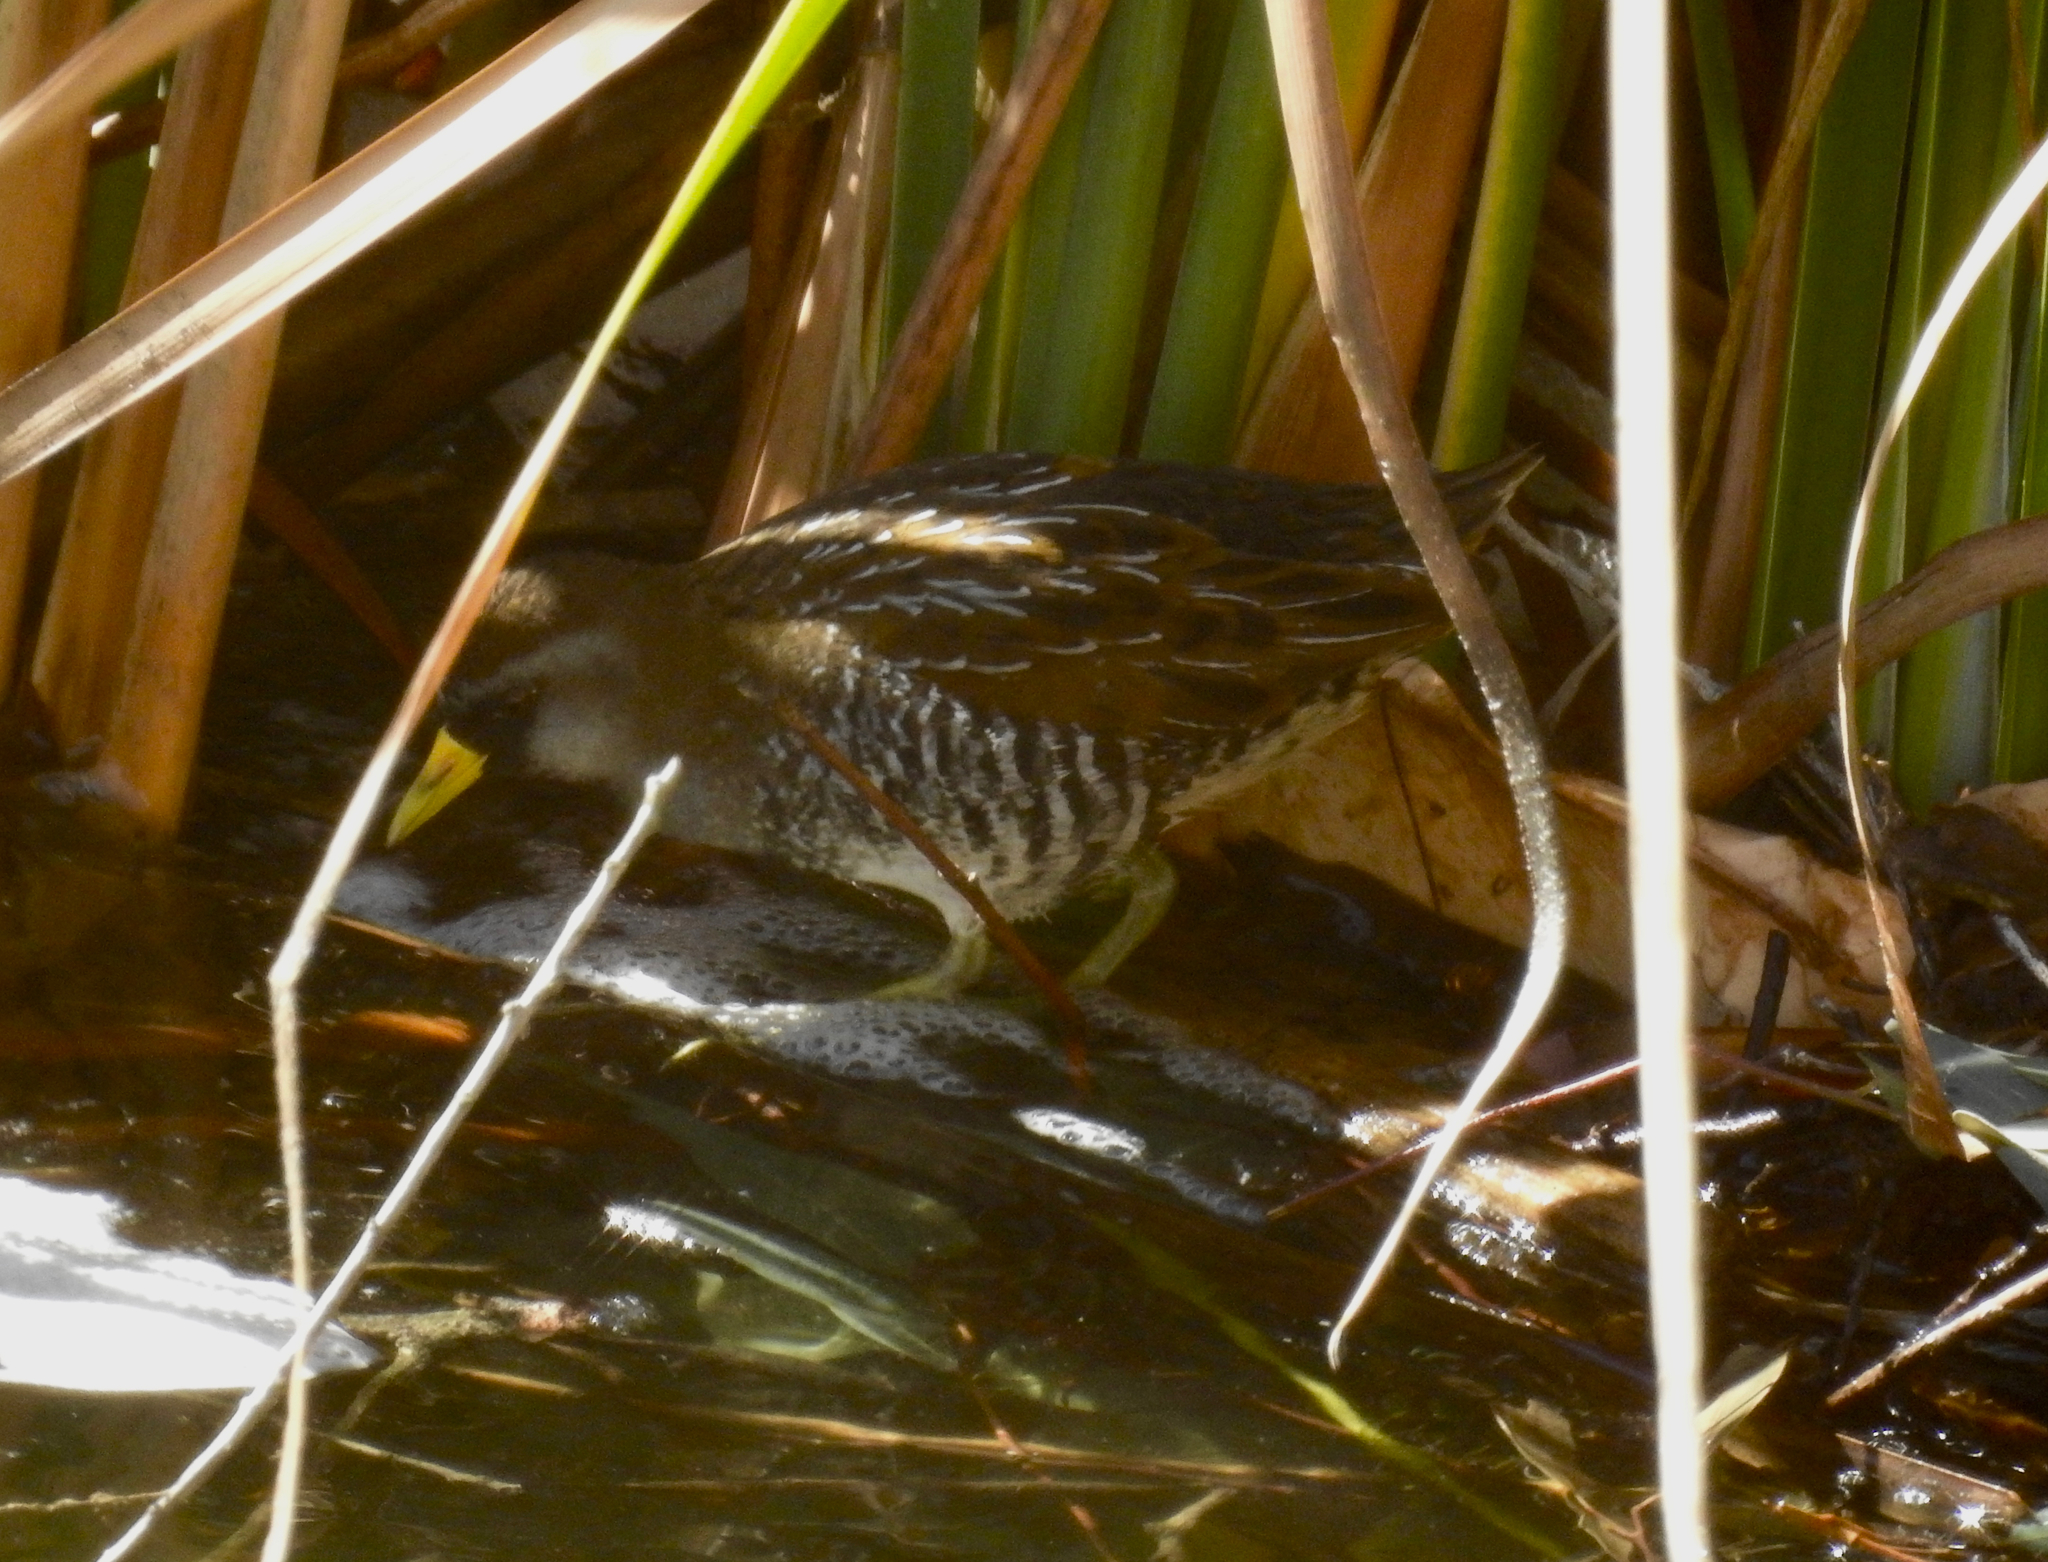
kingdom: Animalia
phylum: Chordata
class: Aves
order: Gruiformes
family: Rallidae
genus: Porzana
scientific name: Porzana carolina
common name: Sora
